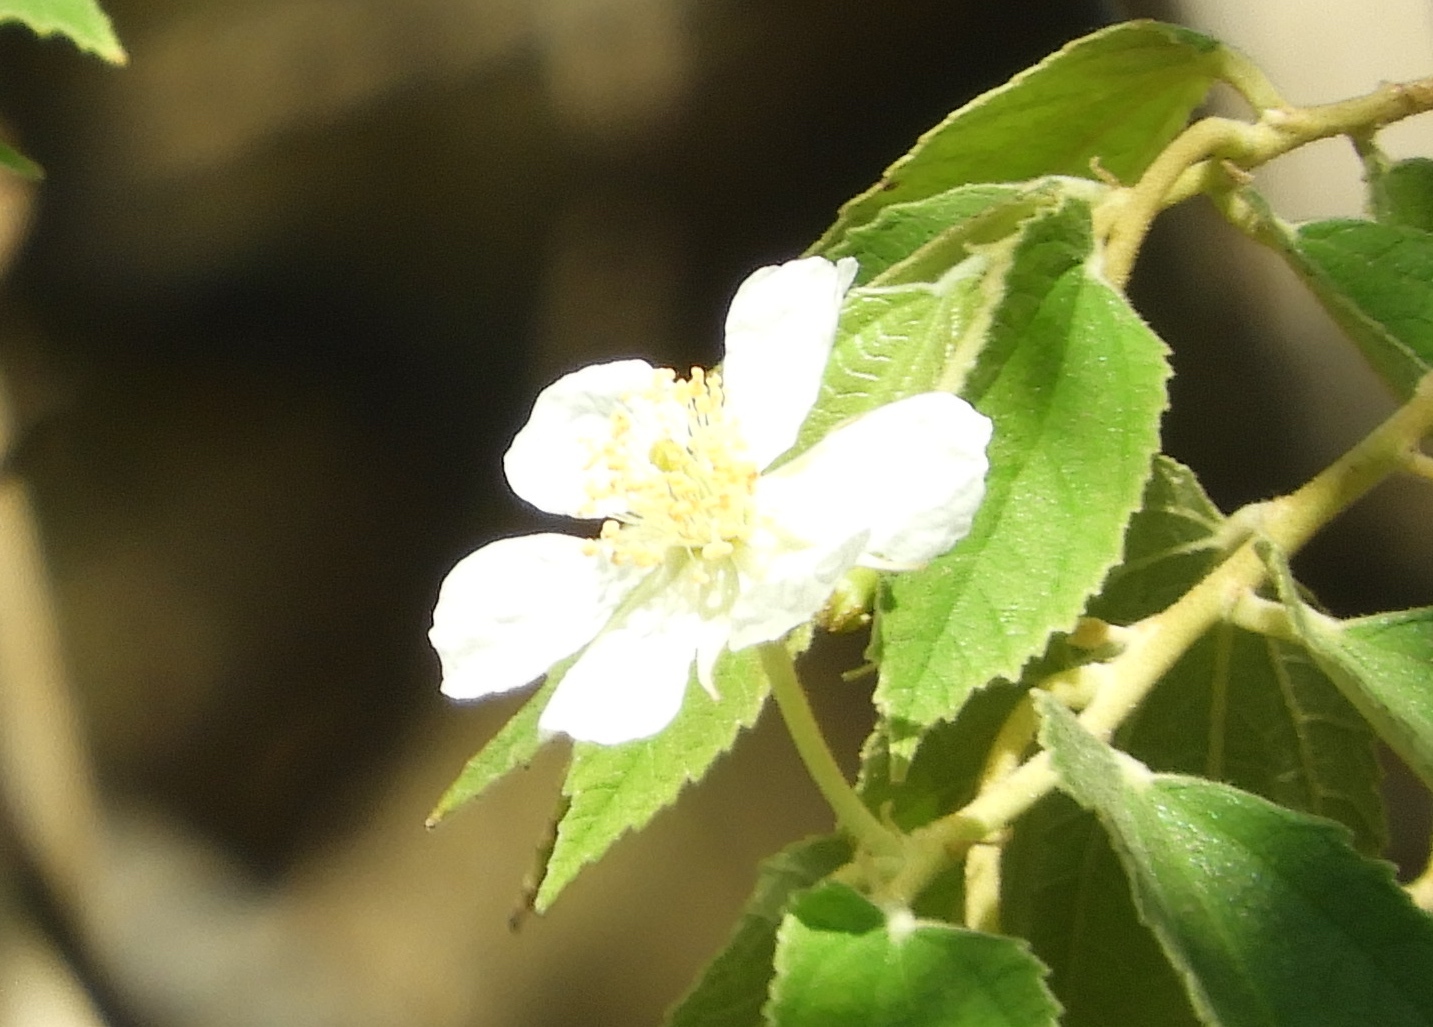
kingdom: Plantae
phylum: Tracheophyta
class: Magnoliopsida
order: Malvales
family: Muntingiaceae
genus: Muntingia
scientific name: Muntingia calabura
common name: Strawberrytree
